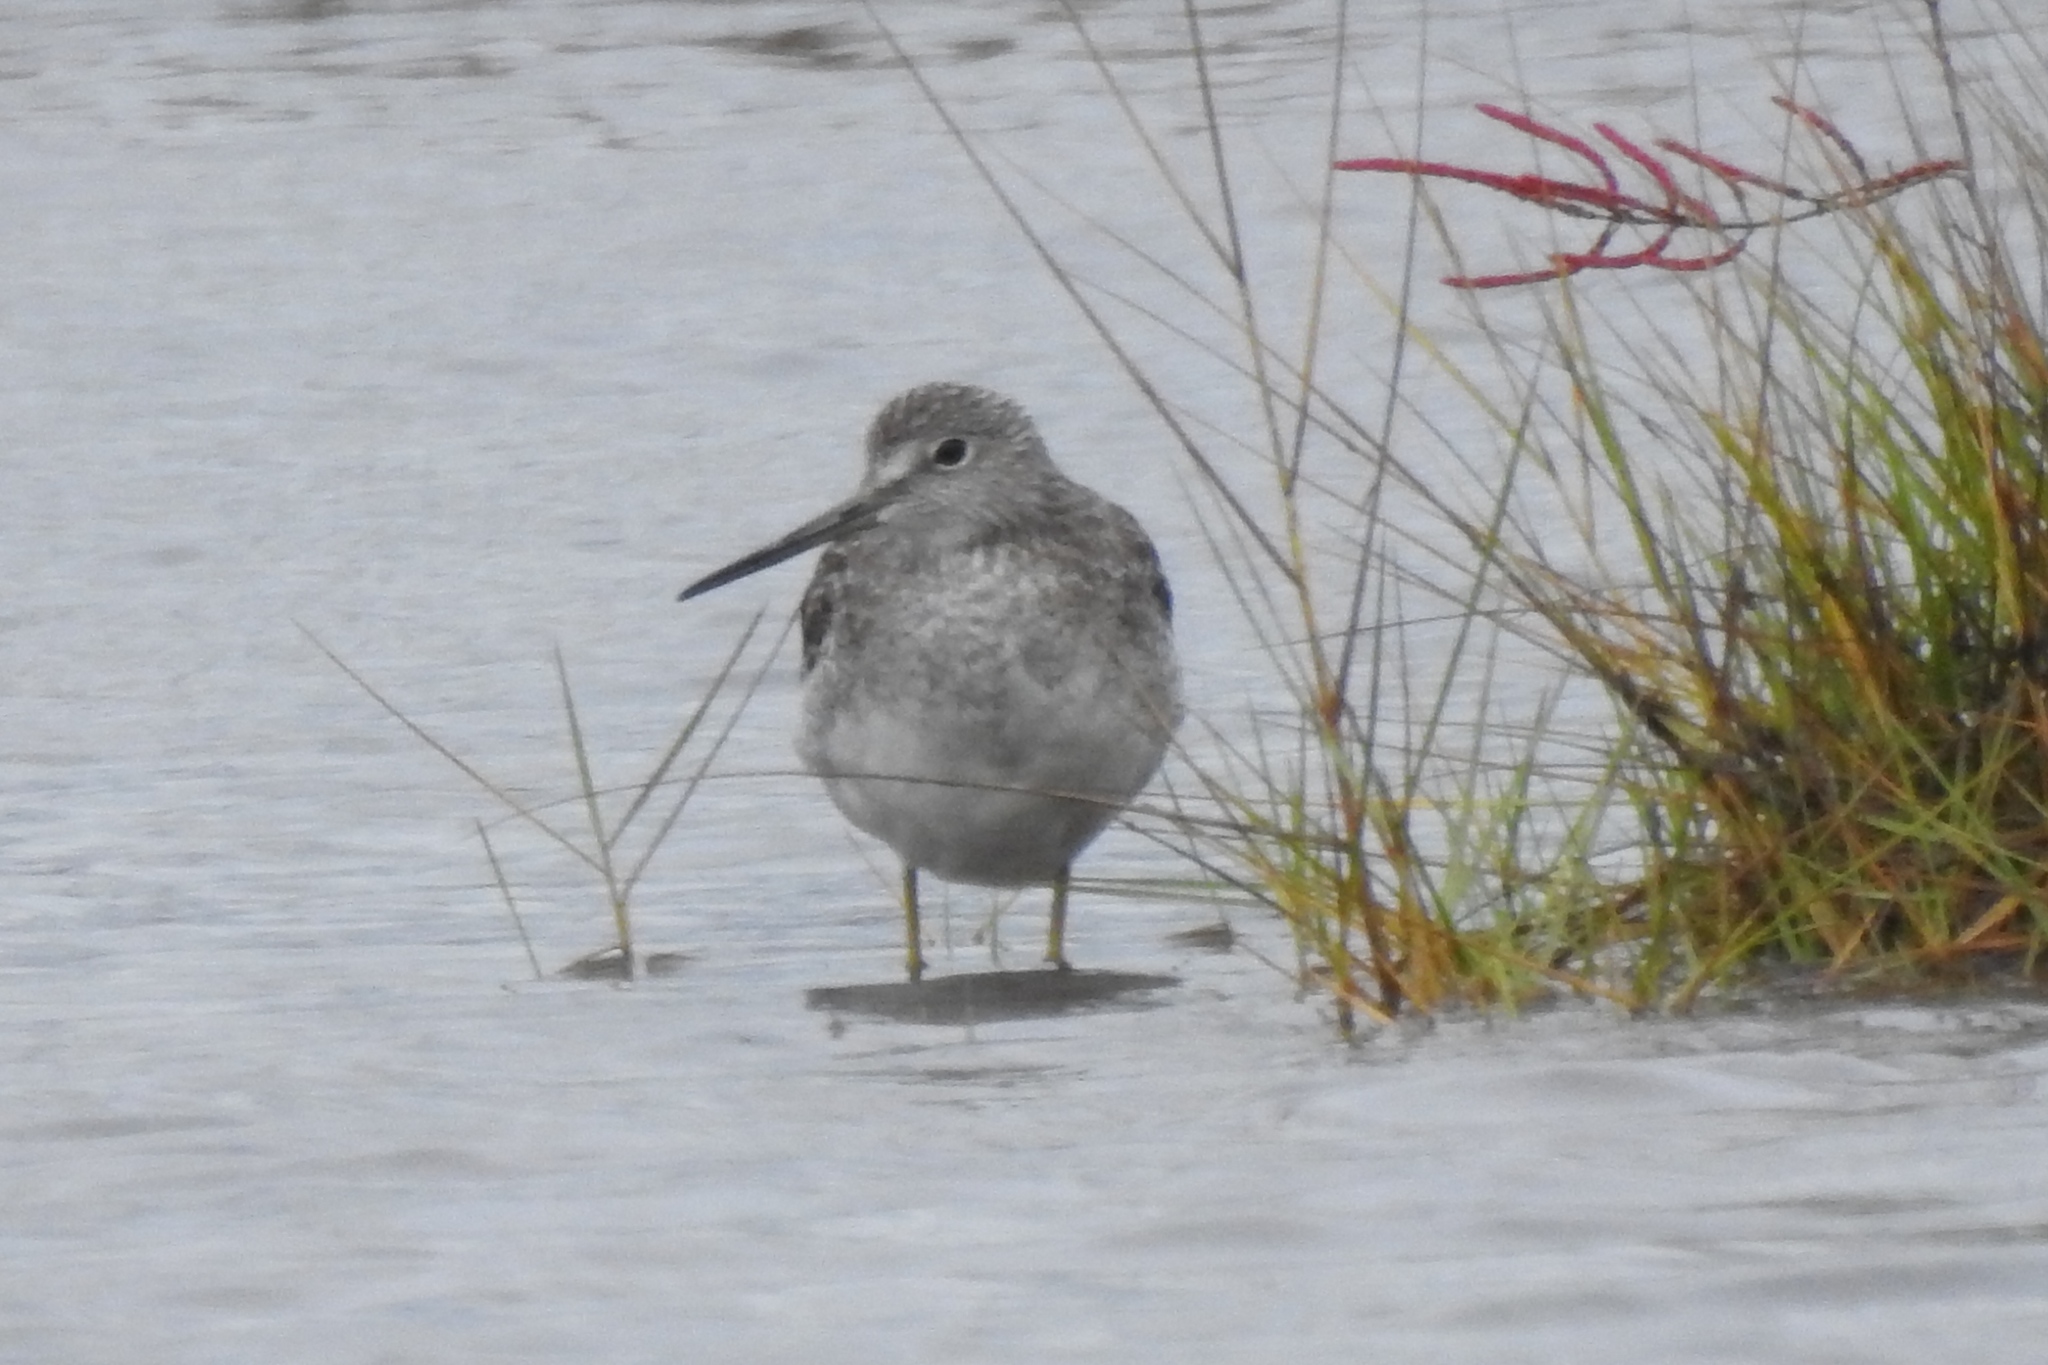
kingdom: Animalia
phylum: Chordata
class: Aves
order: Charadriiformes
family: Scolopacidae
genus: Tringa
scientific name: Tringa melanoleuca
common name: Greater yellowlegs
